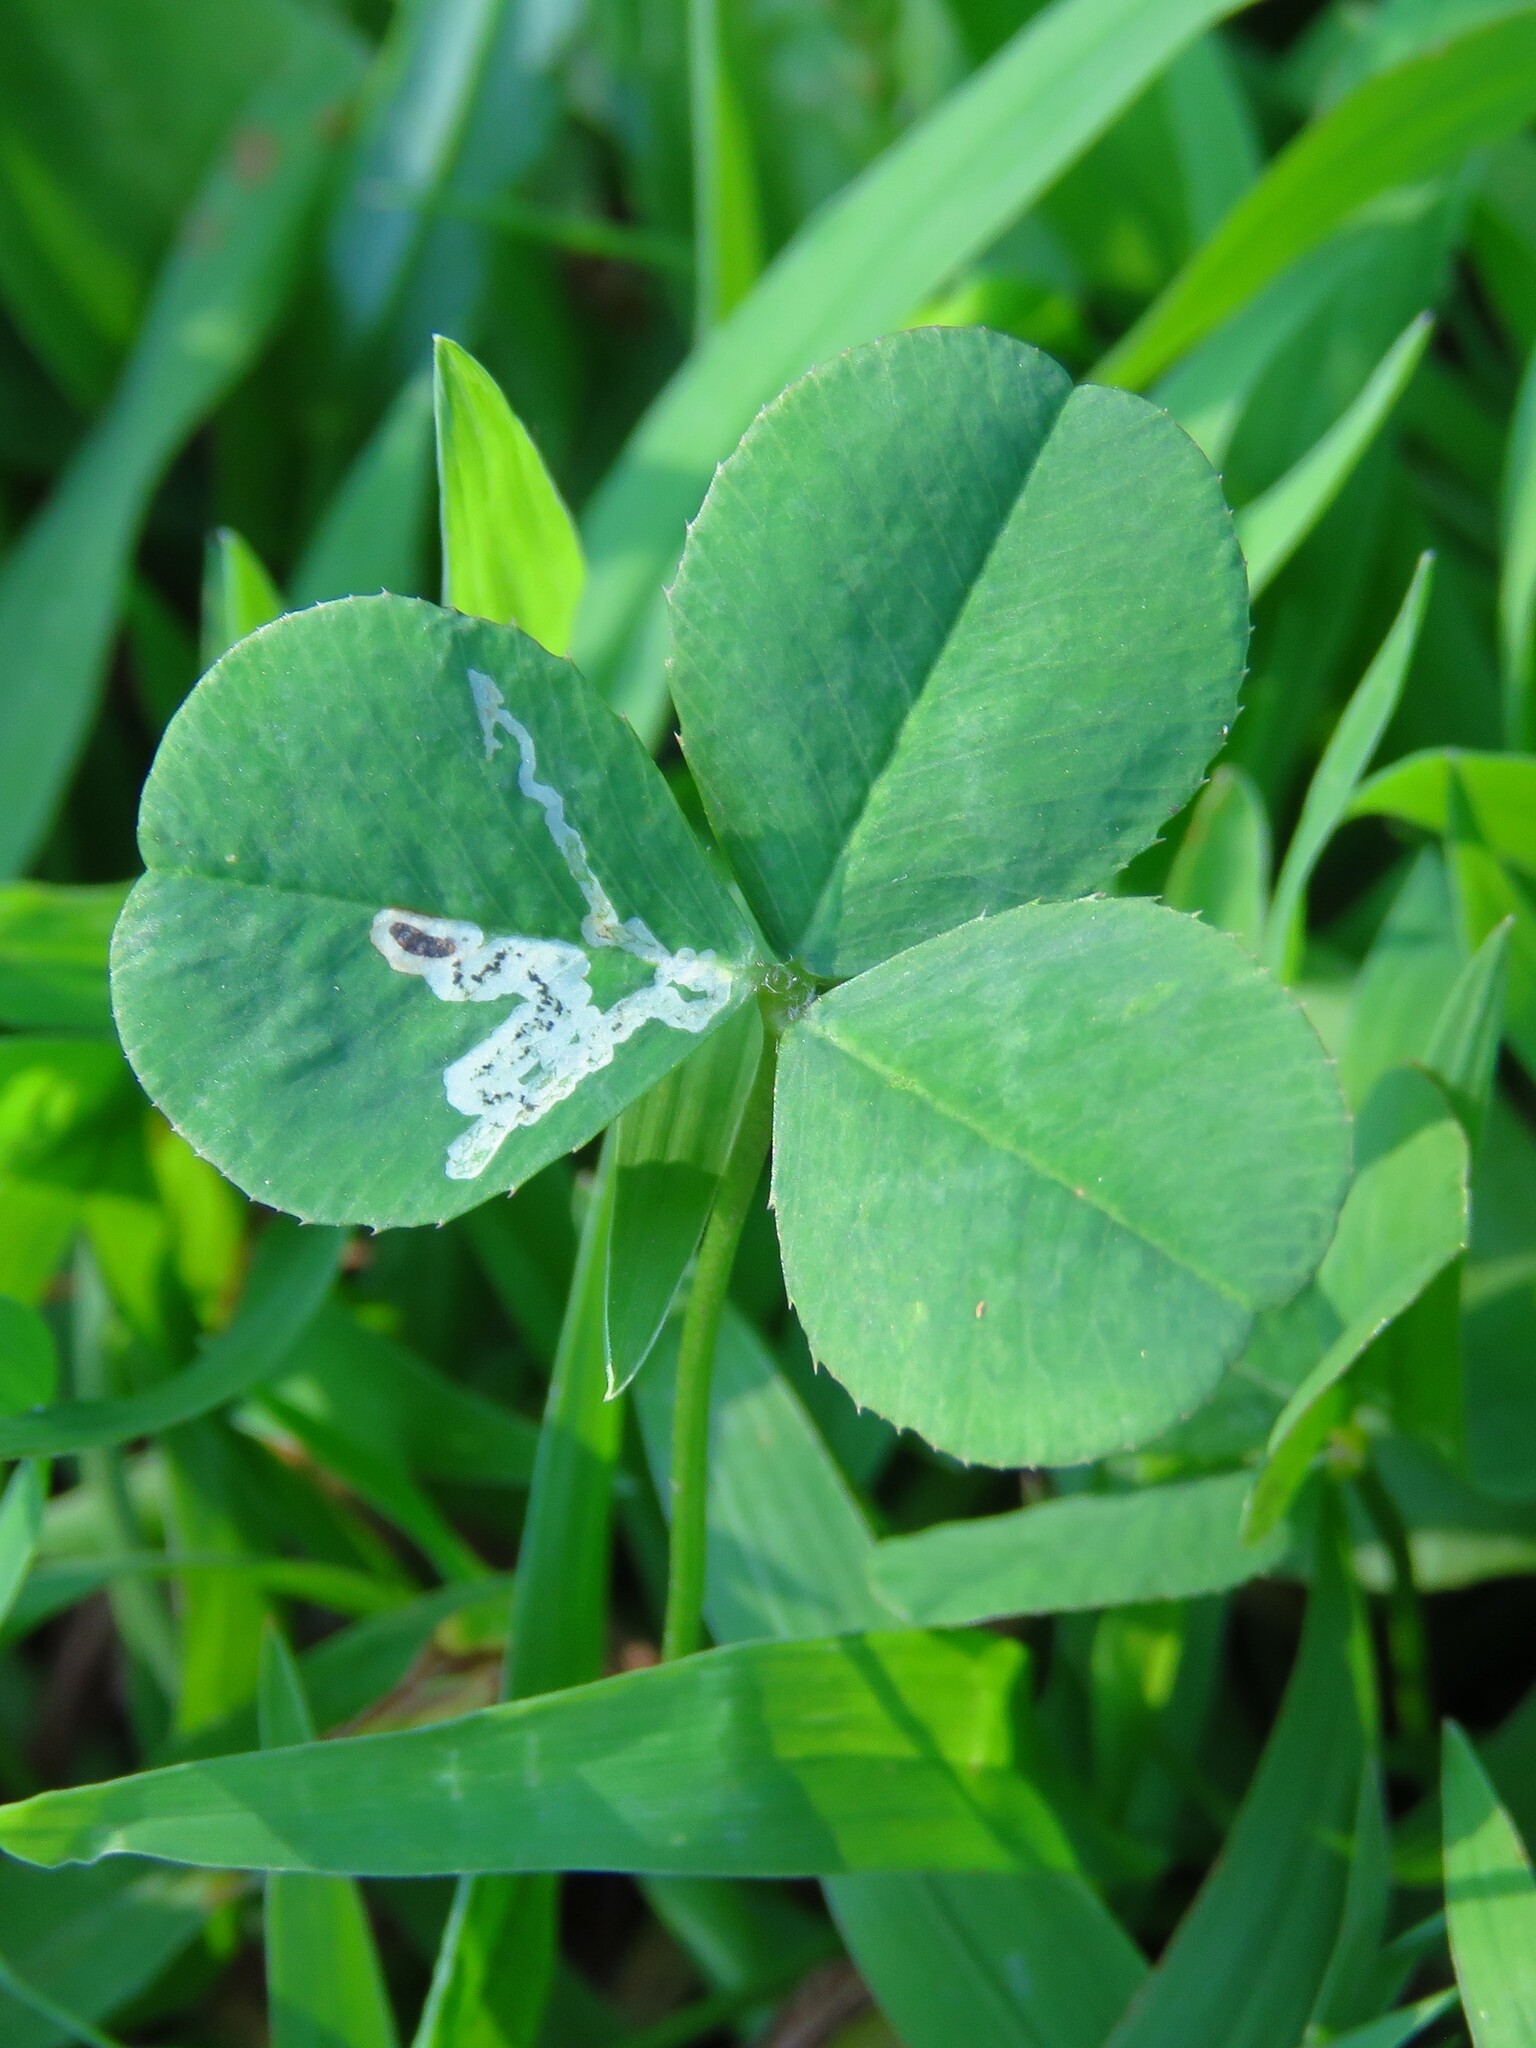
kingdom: Plantae
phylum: Tracheophyta
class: Magnoliopsida
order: Fabales
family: Fabaceae
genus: Trifolium
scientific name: Trifolium repens
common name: White clover
